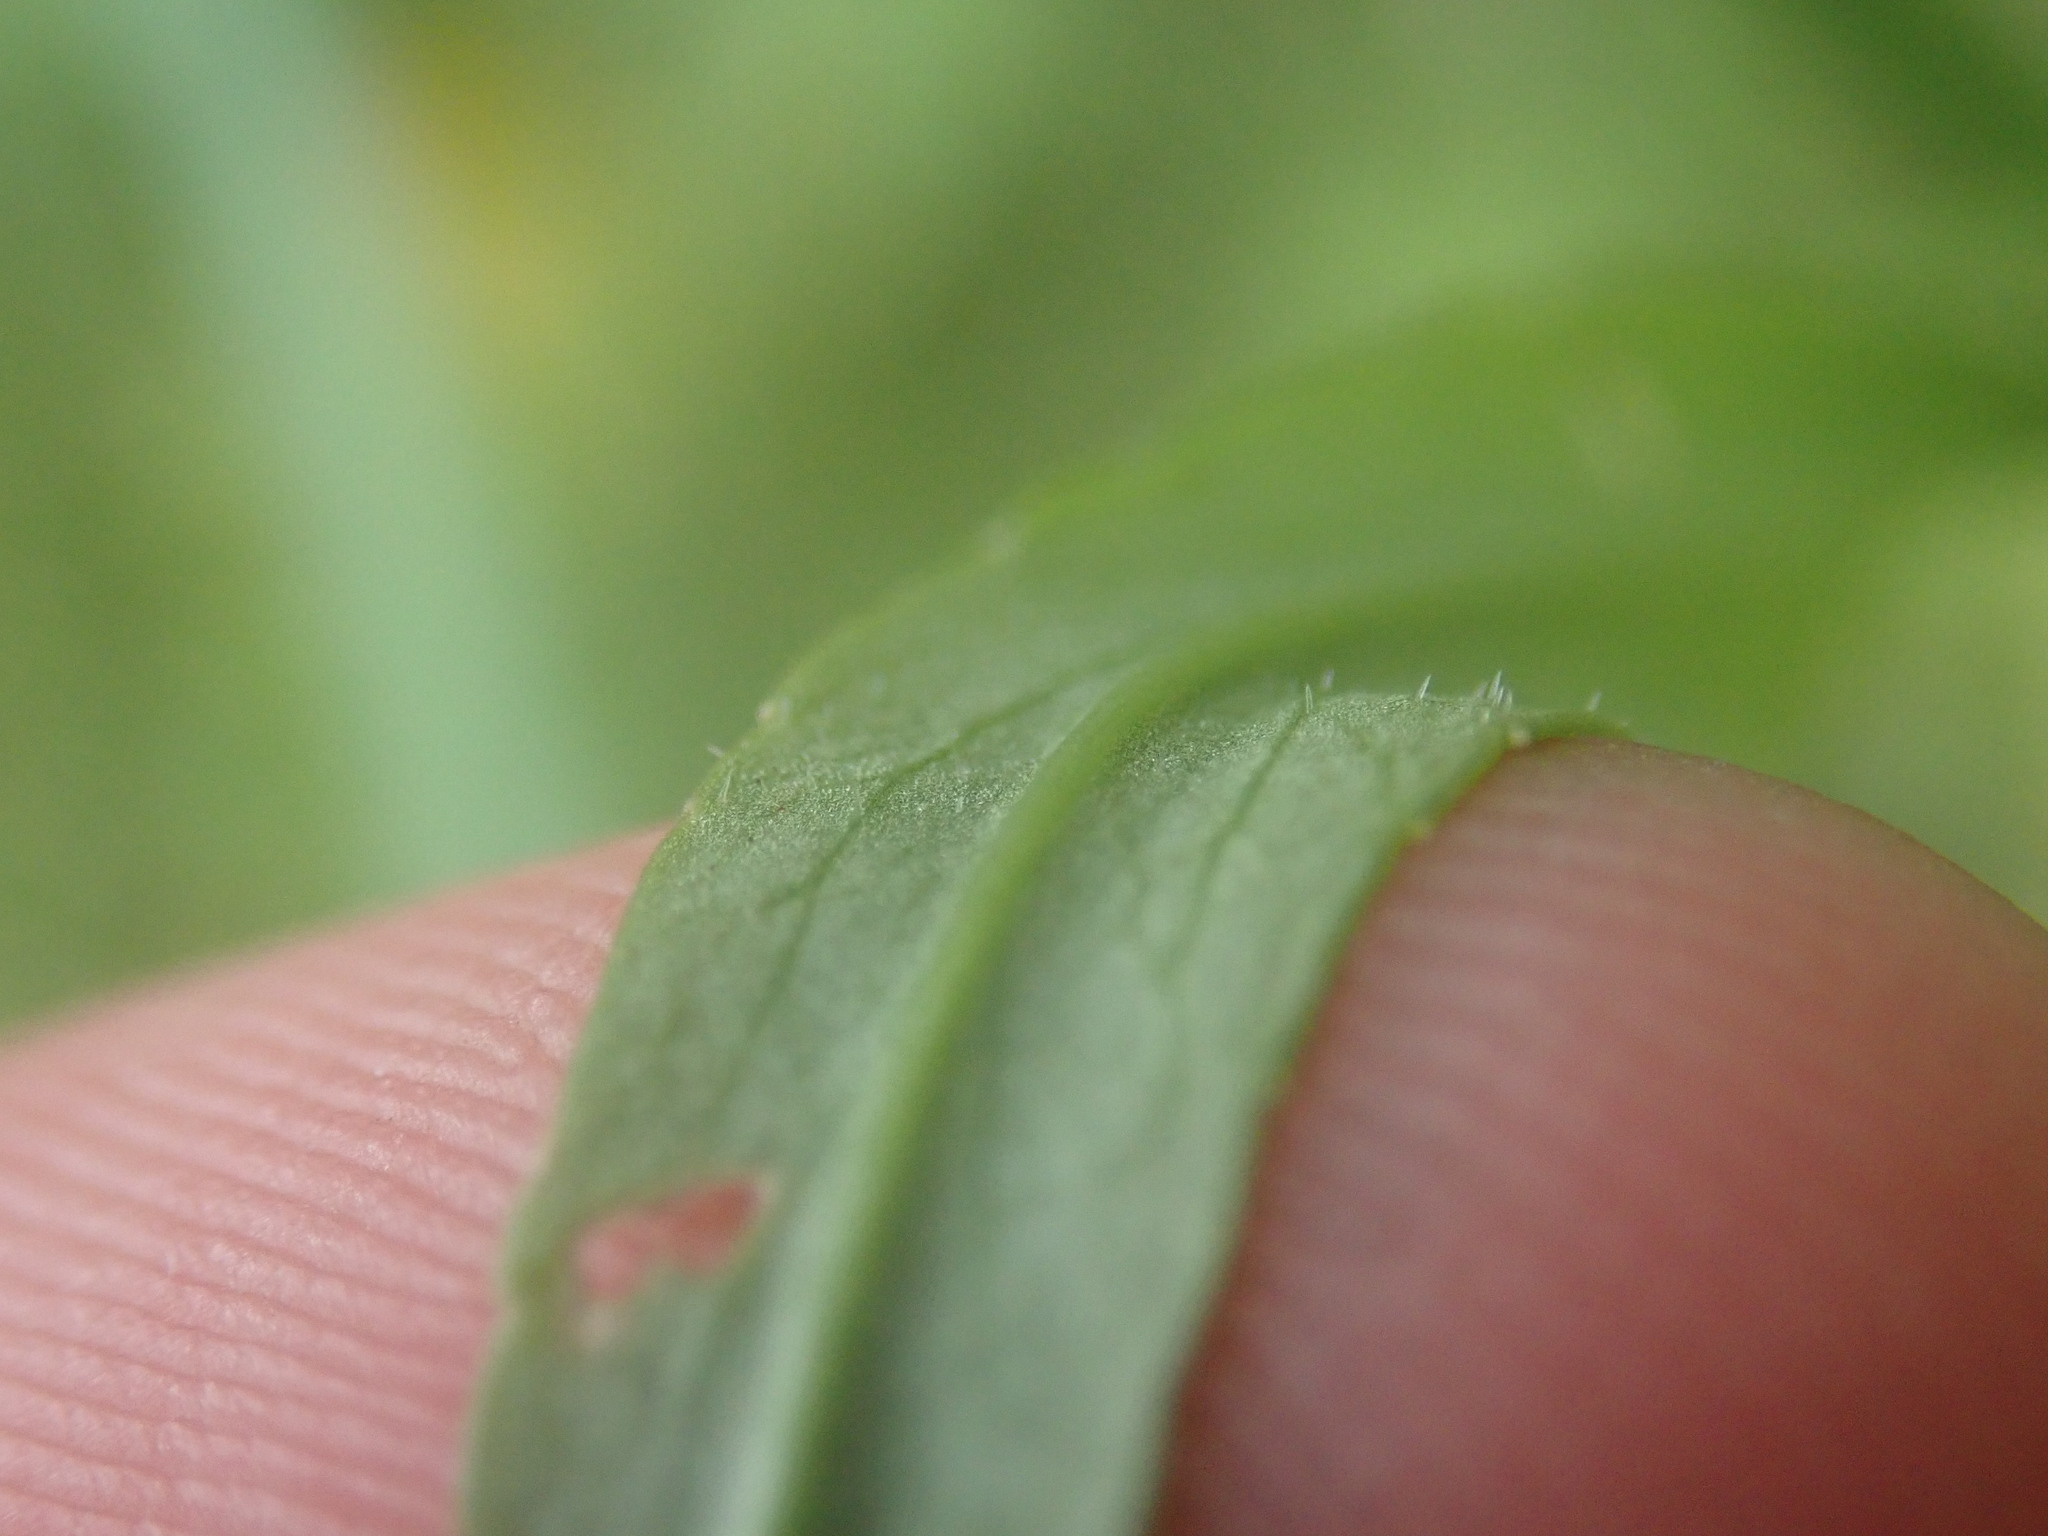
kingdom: Plantae
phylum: Tracheophyta
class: Magnoliopsida
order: Asterales
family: Campanulaceae
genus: Campanula
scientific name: Campanula rapunculus
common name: Rampion bellflower
